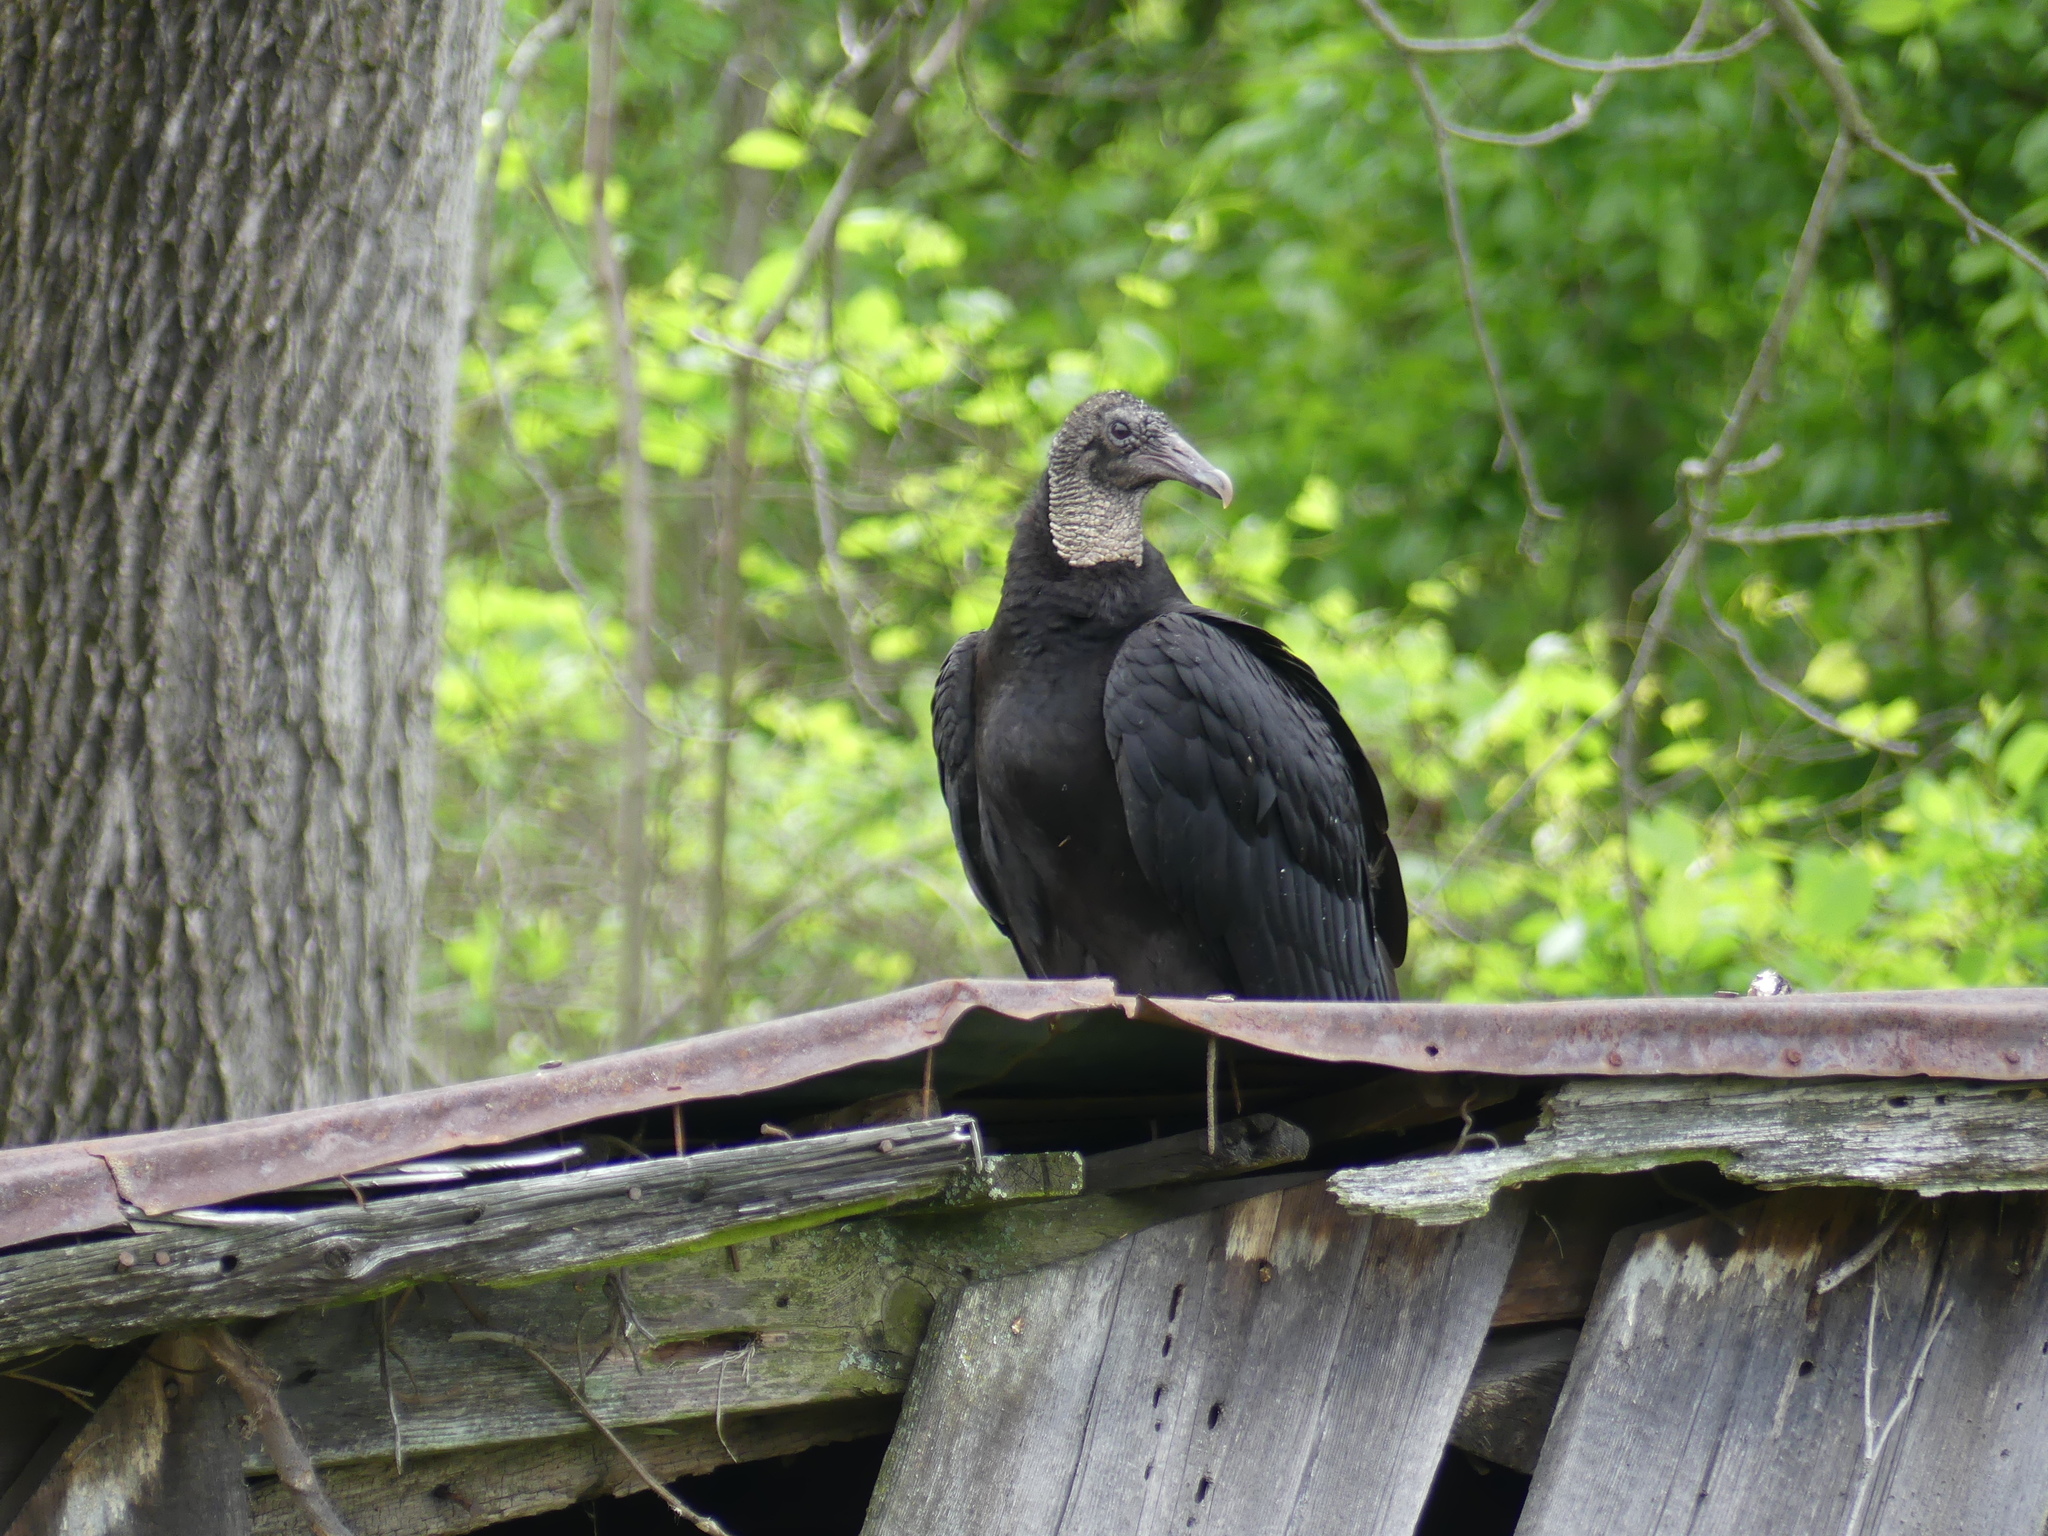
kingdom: Animalia
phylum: Chordata
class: Aves
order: Accipitriformes
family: Cathartidae
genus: Coragyps
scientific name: Coragyps atratus
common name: Black vulture
